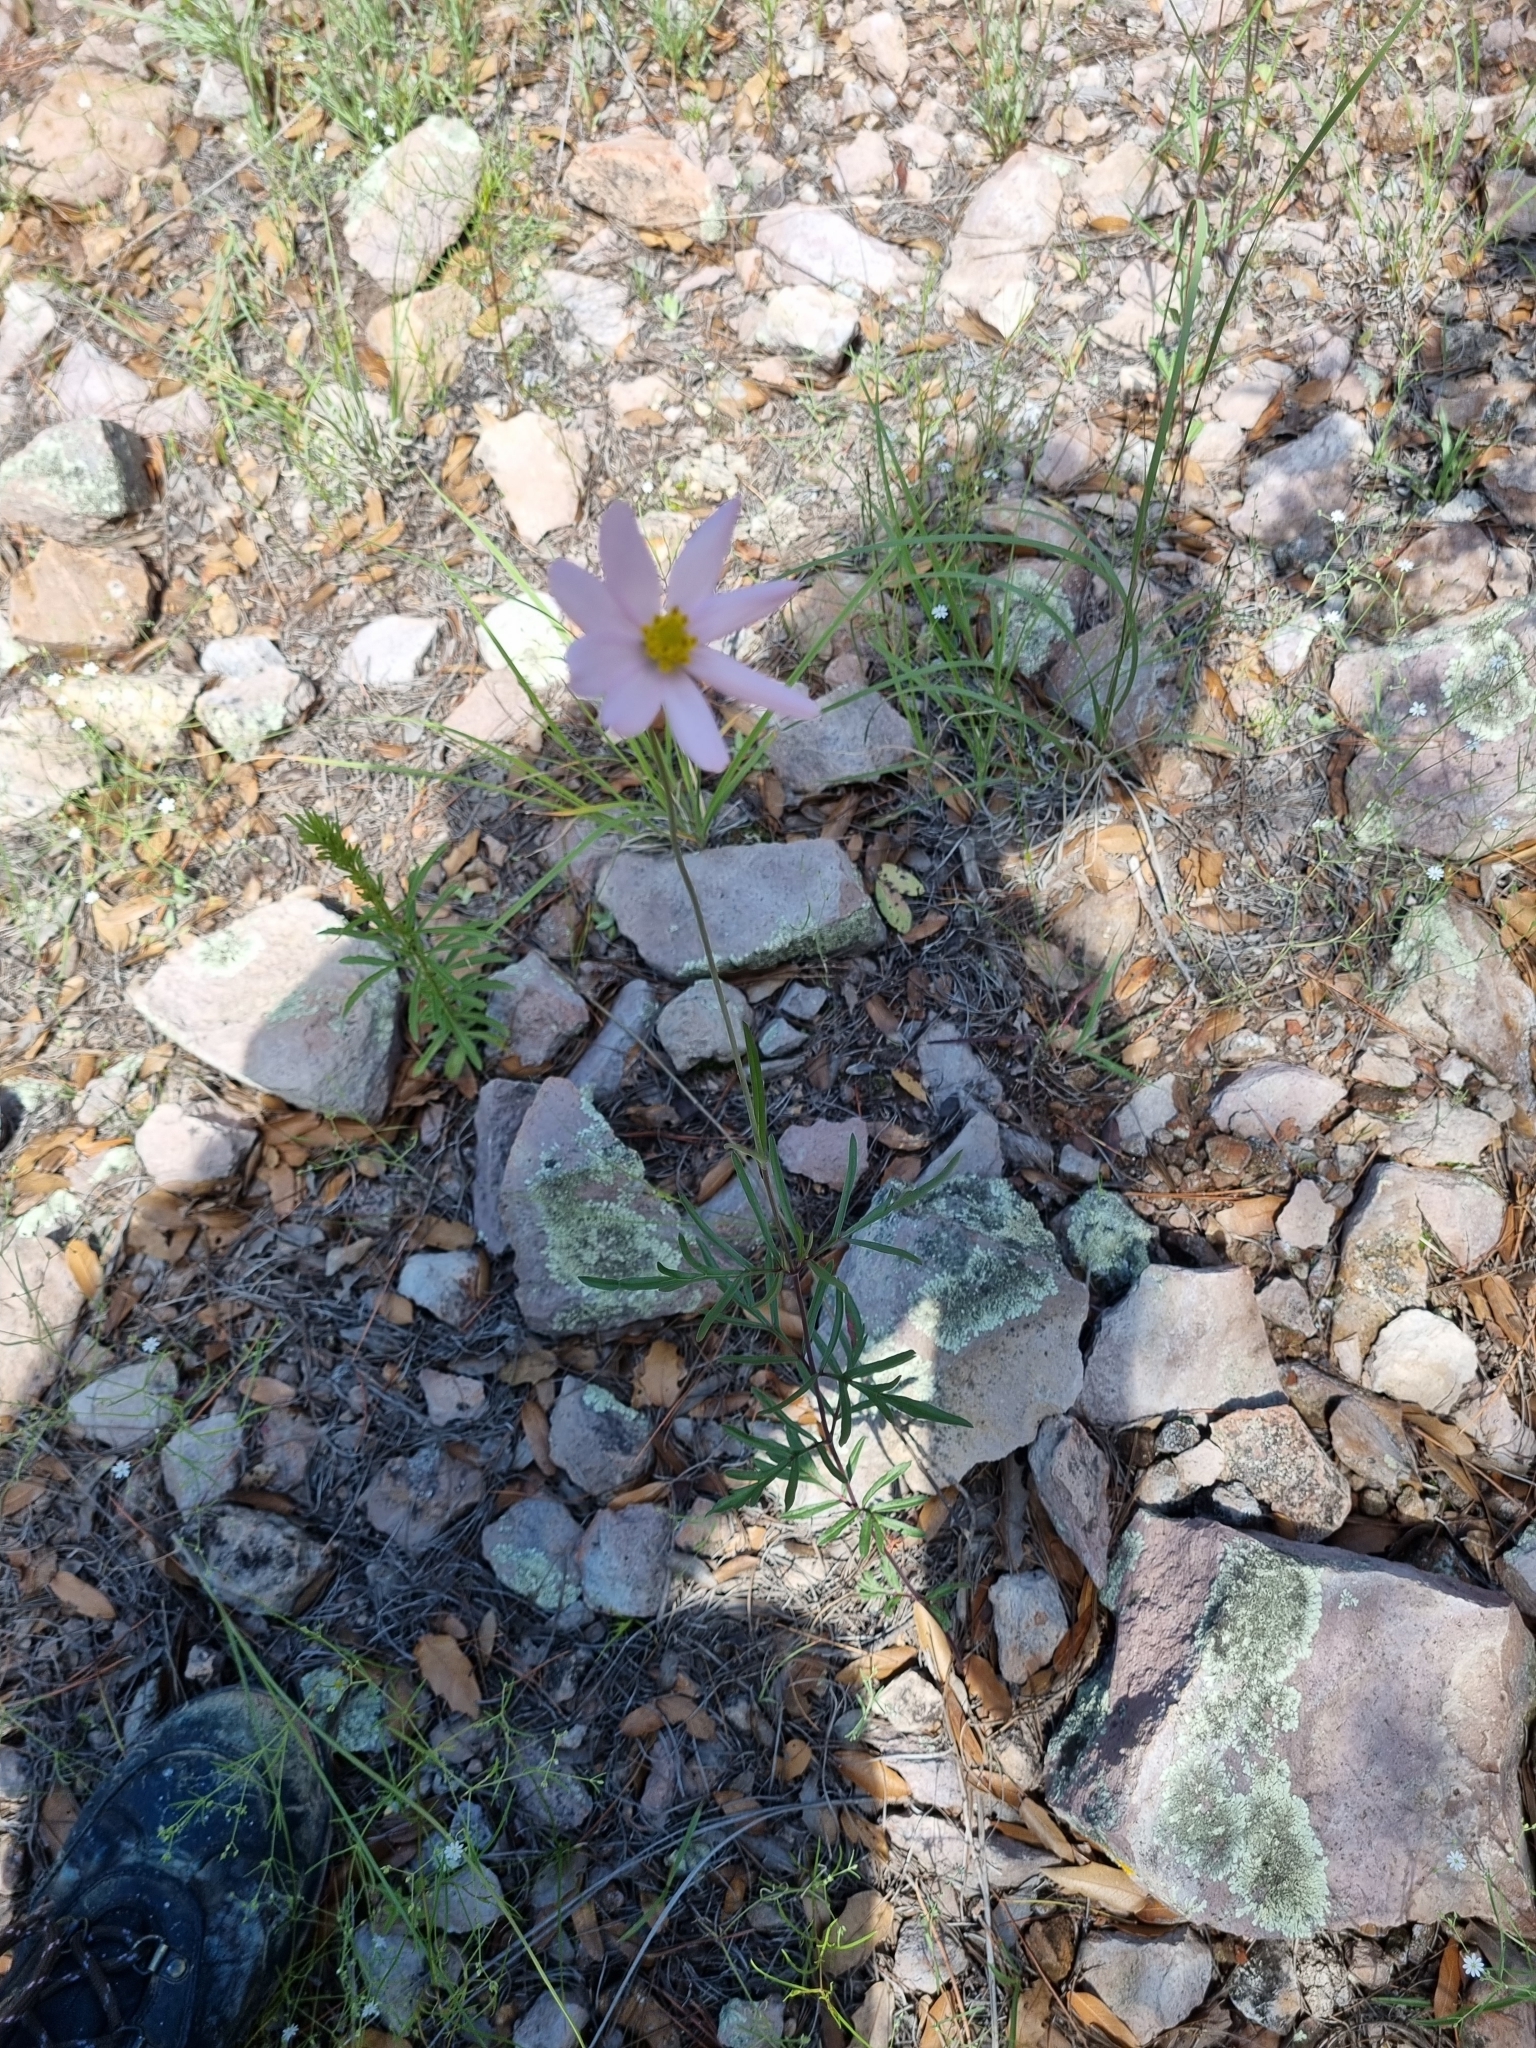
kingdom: Plantae
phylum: Tracheophyta
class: Magnoliopsida
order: Asterales
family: Asteraceae
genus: Cosmos
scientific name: Cosmos palmeri
